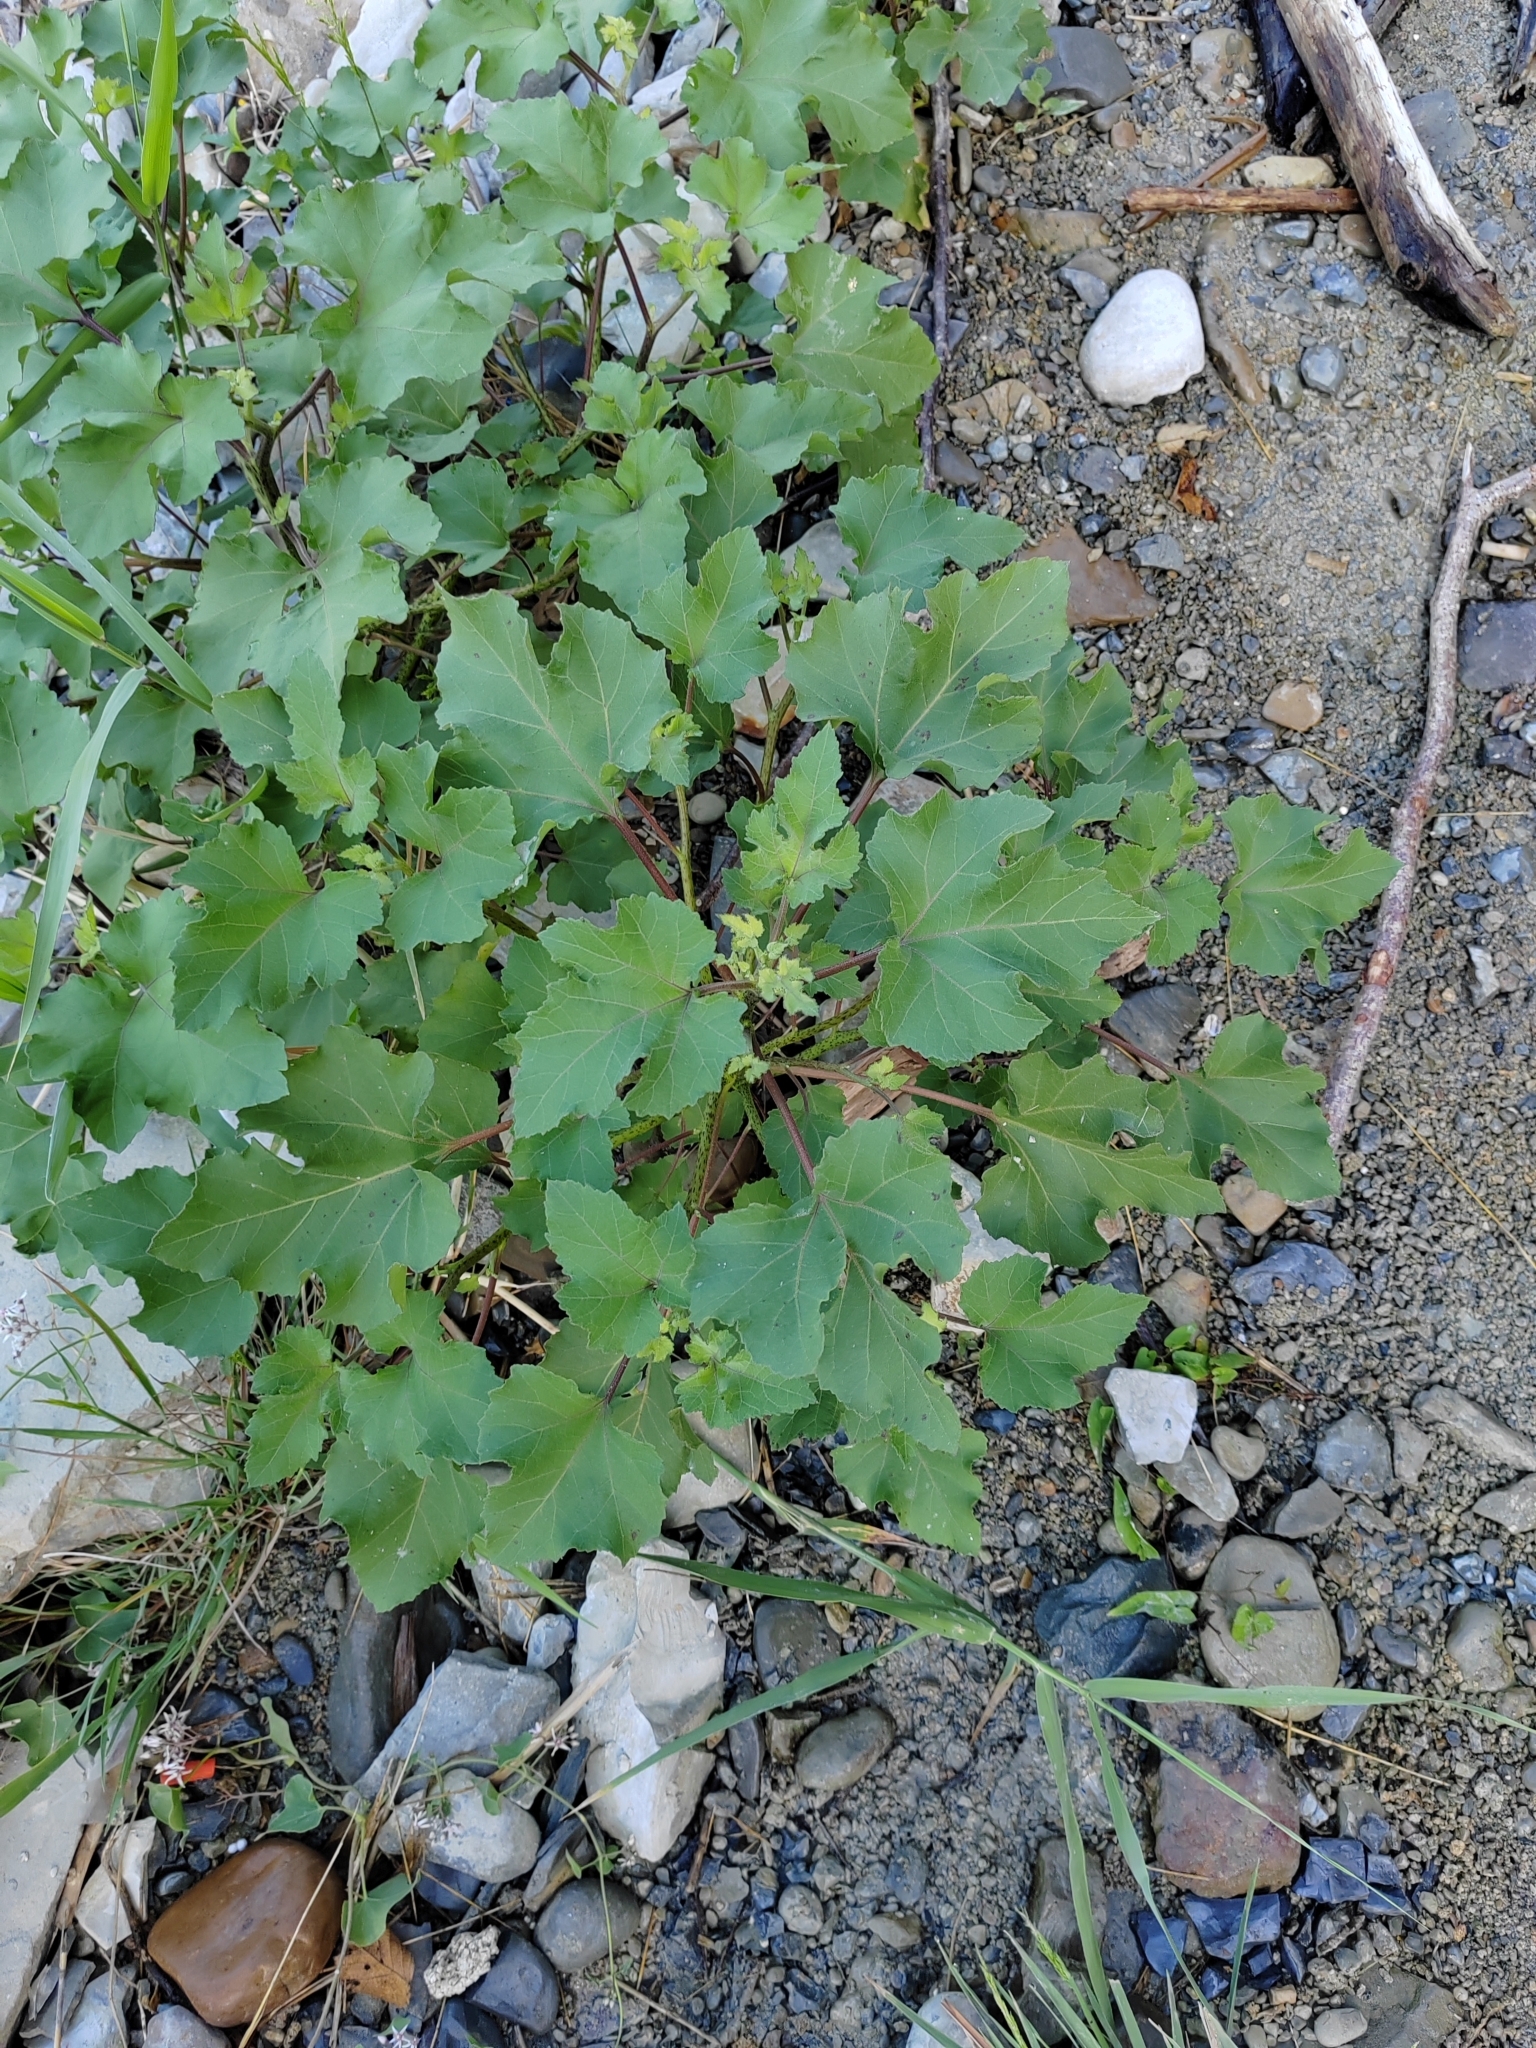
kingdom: Plantae
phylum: Tracheophyta
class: Magnoliopsida
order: Asterales
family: Asteraceae
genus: Xanthium
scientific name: Xanthium orientale
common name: Californian burr
